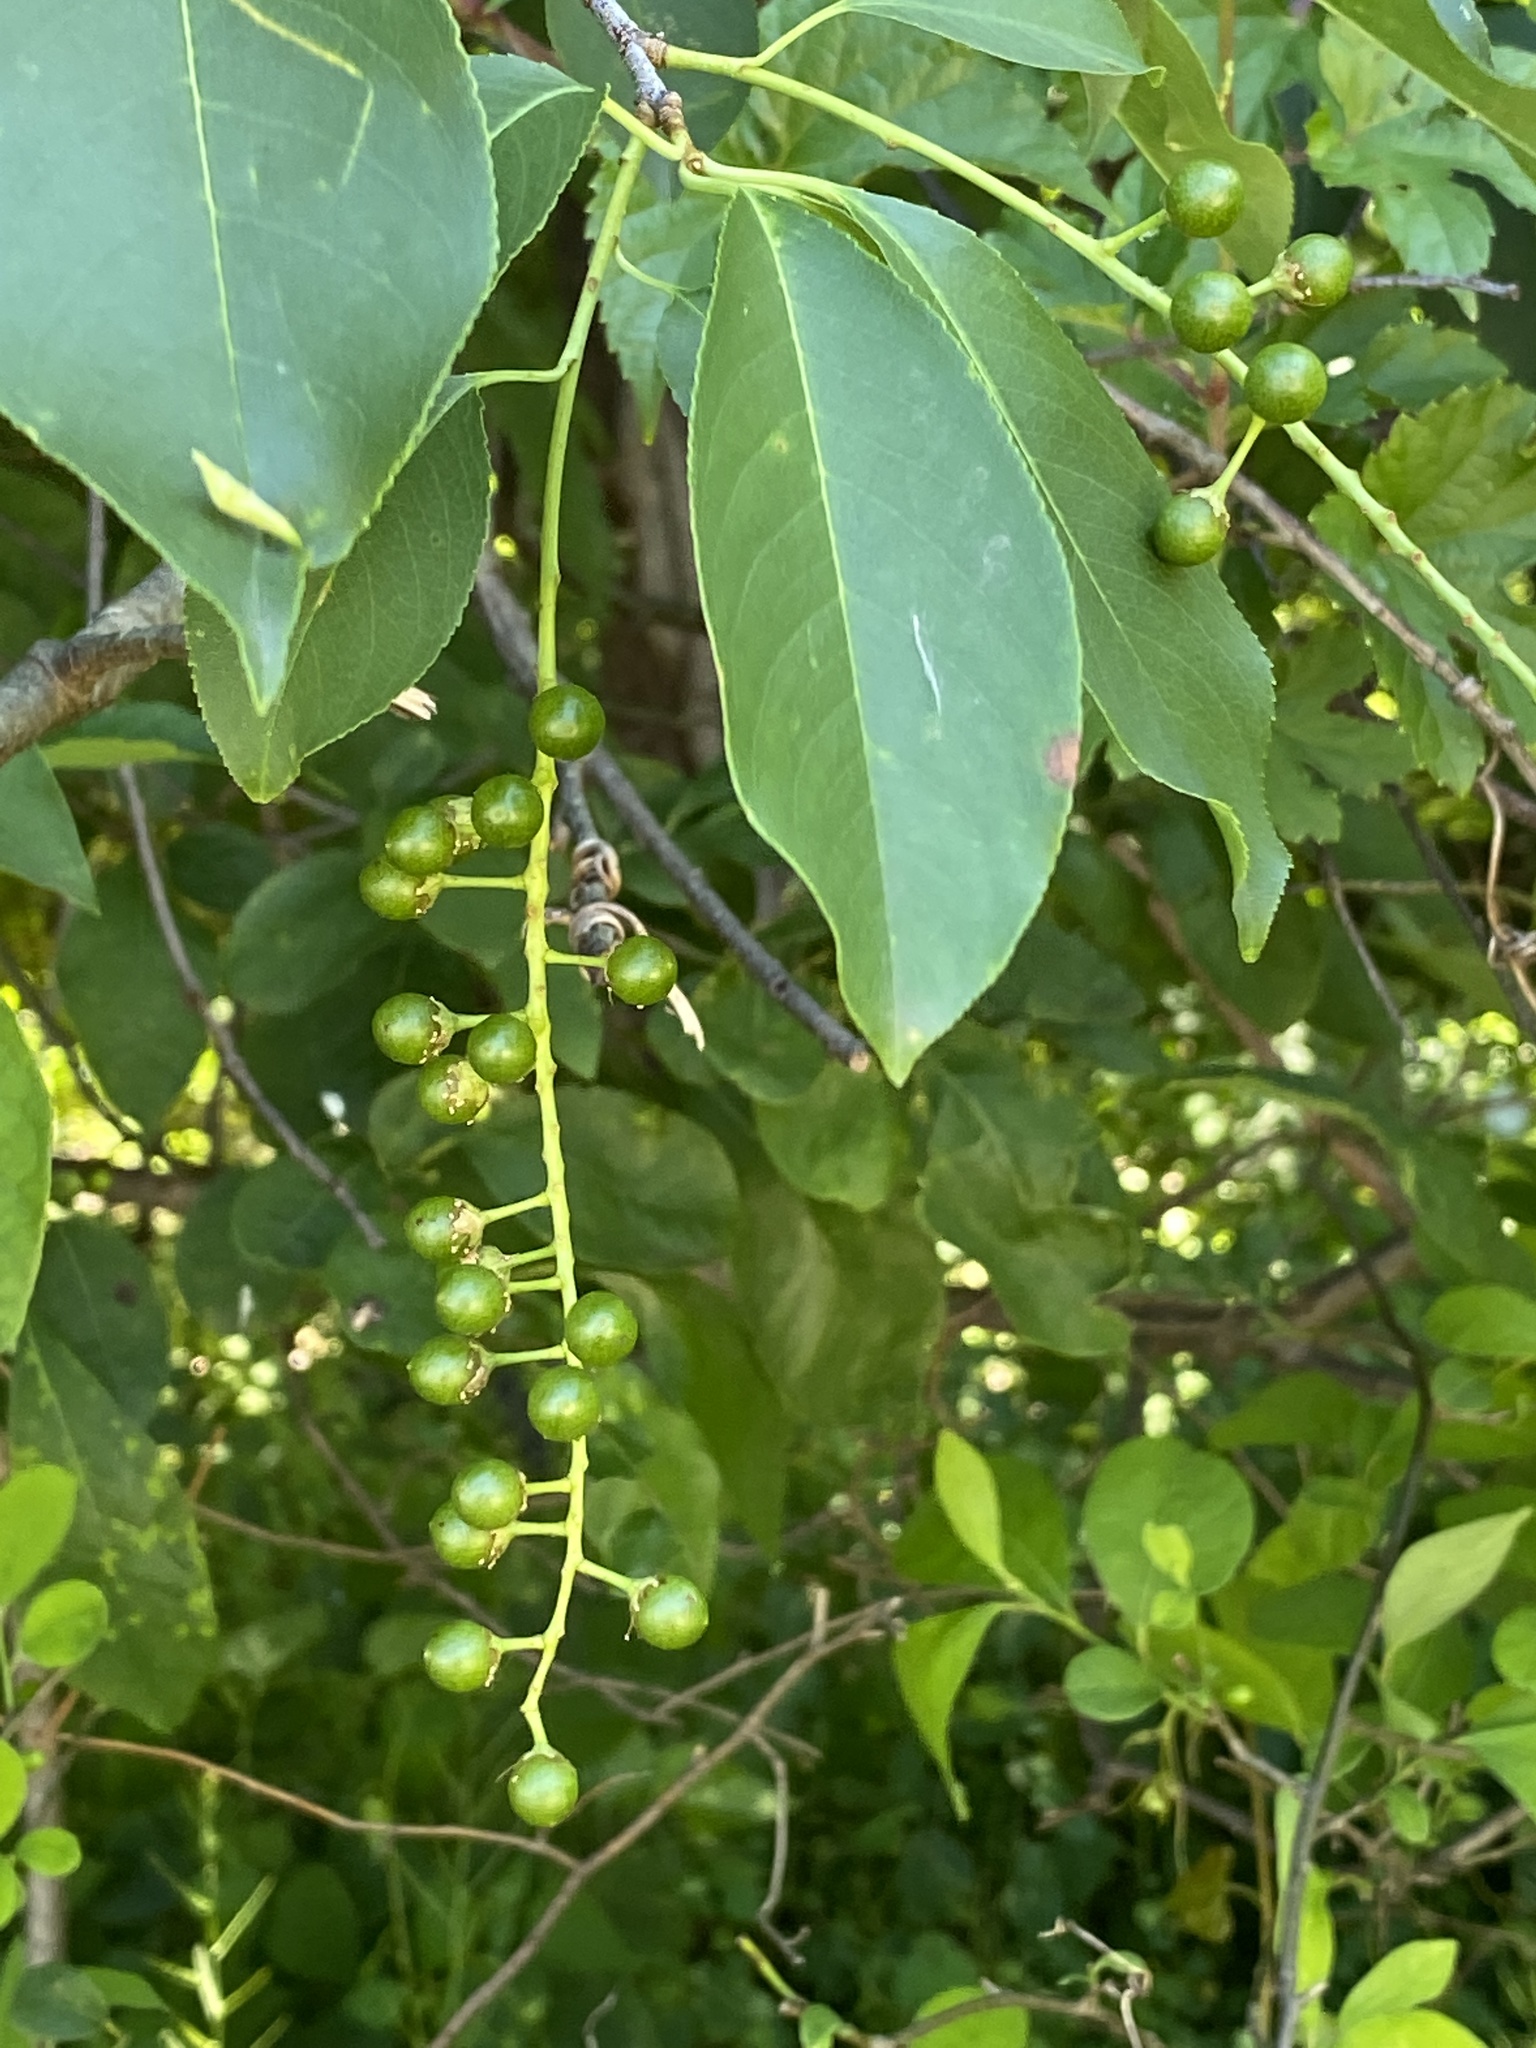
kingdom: Plantae
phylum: Tracheophyta
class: Magnoliopsida
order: Rosales
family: Rosaceae
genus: Prunus
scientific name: Prunus serotina
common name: Black cherry
